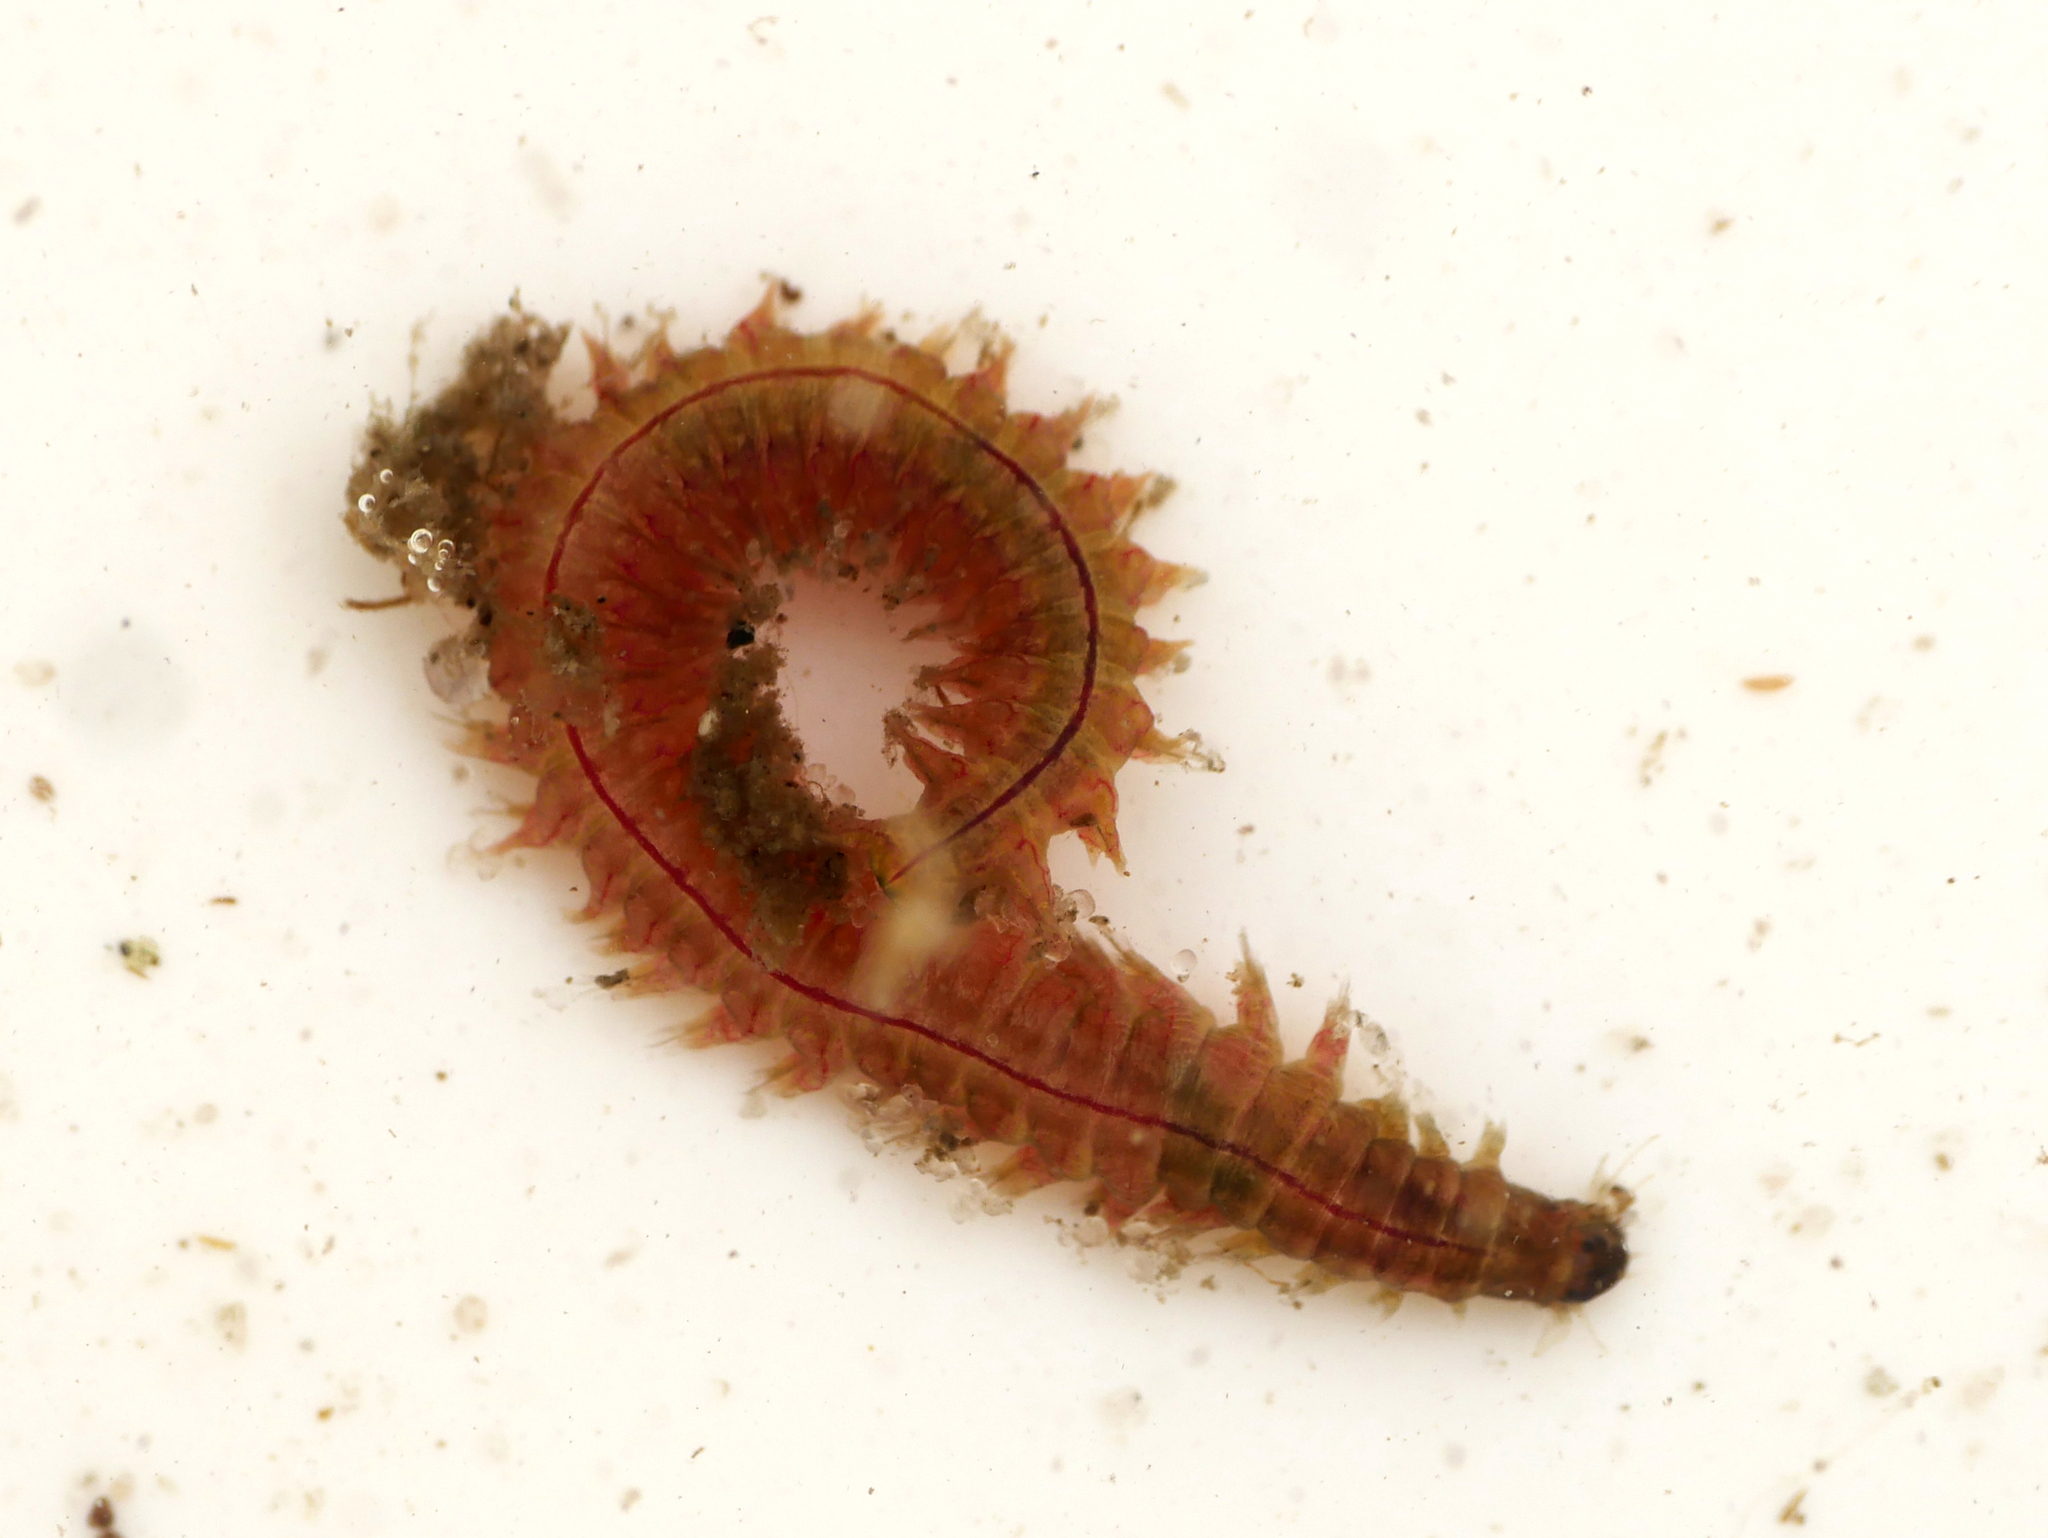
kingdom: Animalia
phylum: Annelida
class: Polychaeta
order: Phyllodocida
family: Nereididae
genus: Hediste
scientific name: Hediste diversicolor
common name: Estuary ragworm
